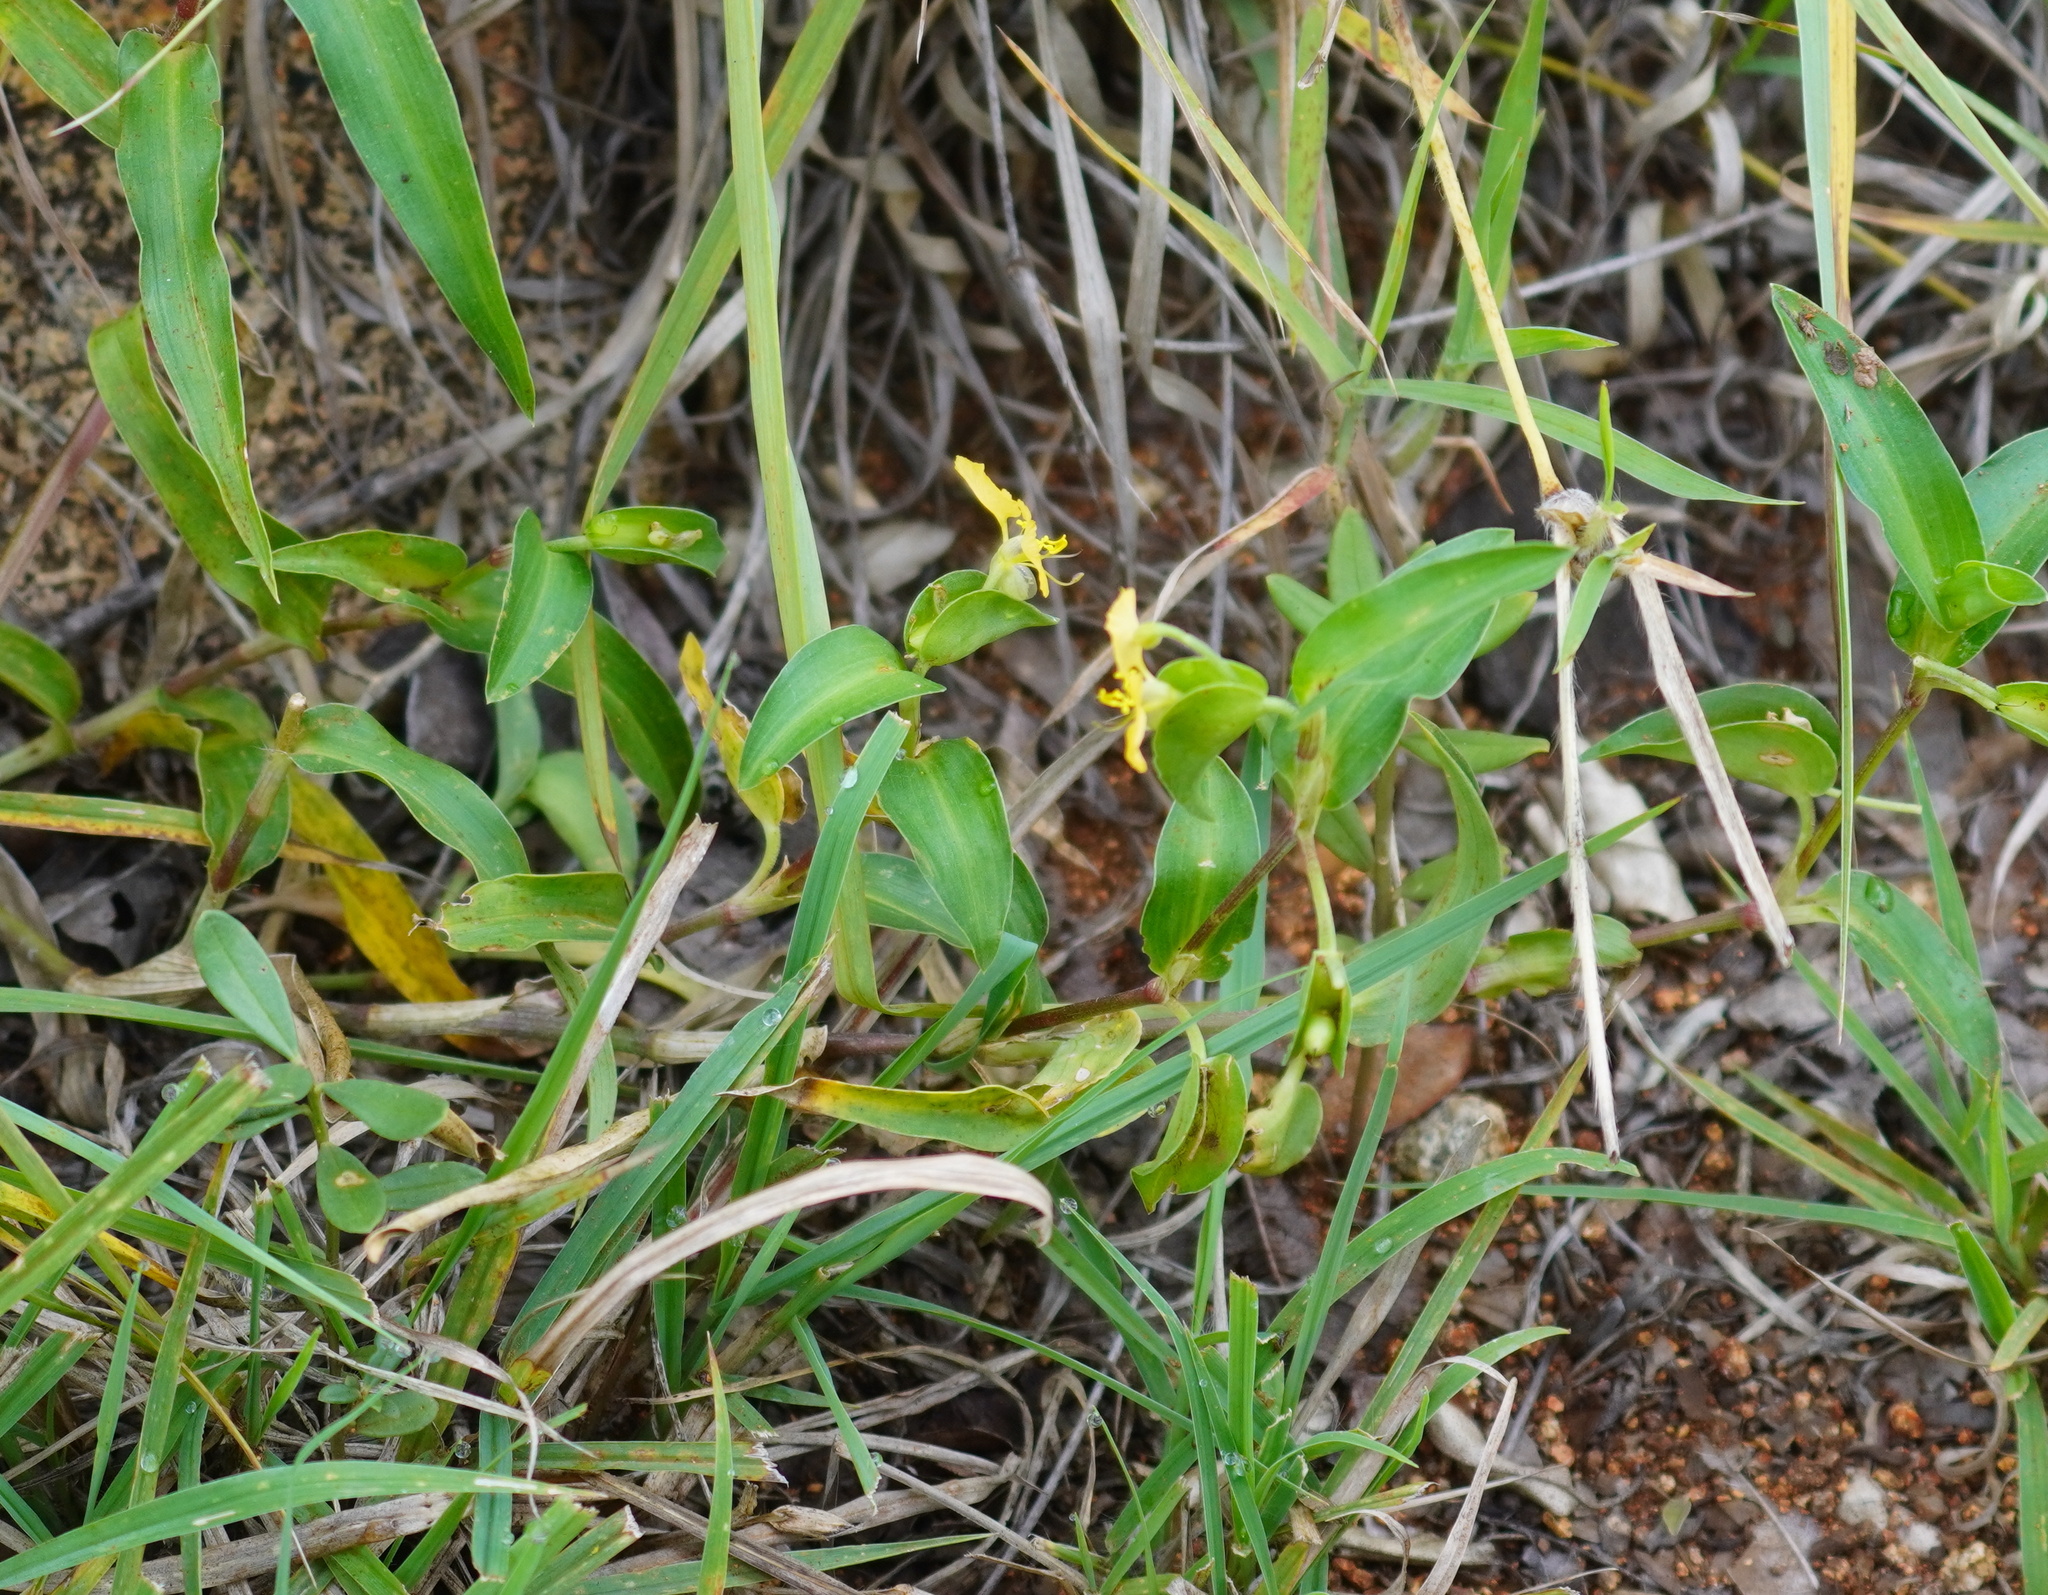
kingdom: Plantae
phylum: Tracheophyta
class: Liliopsida
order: Commelinales
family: Commelinaceae
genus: Commelina
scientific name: Commelina africana
